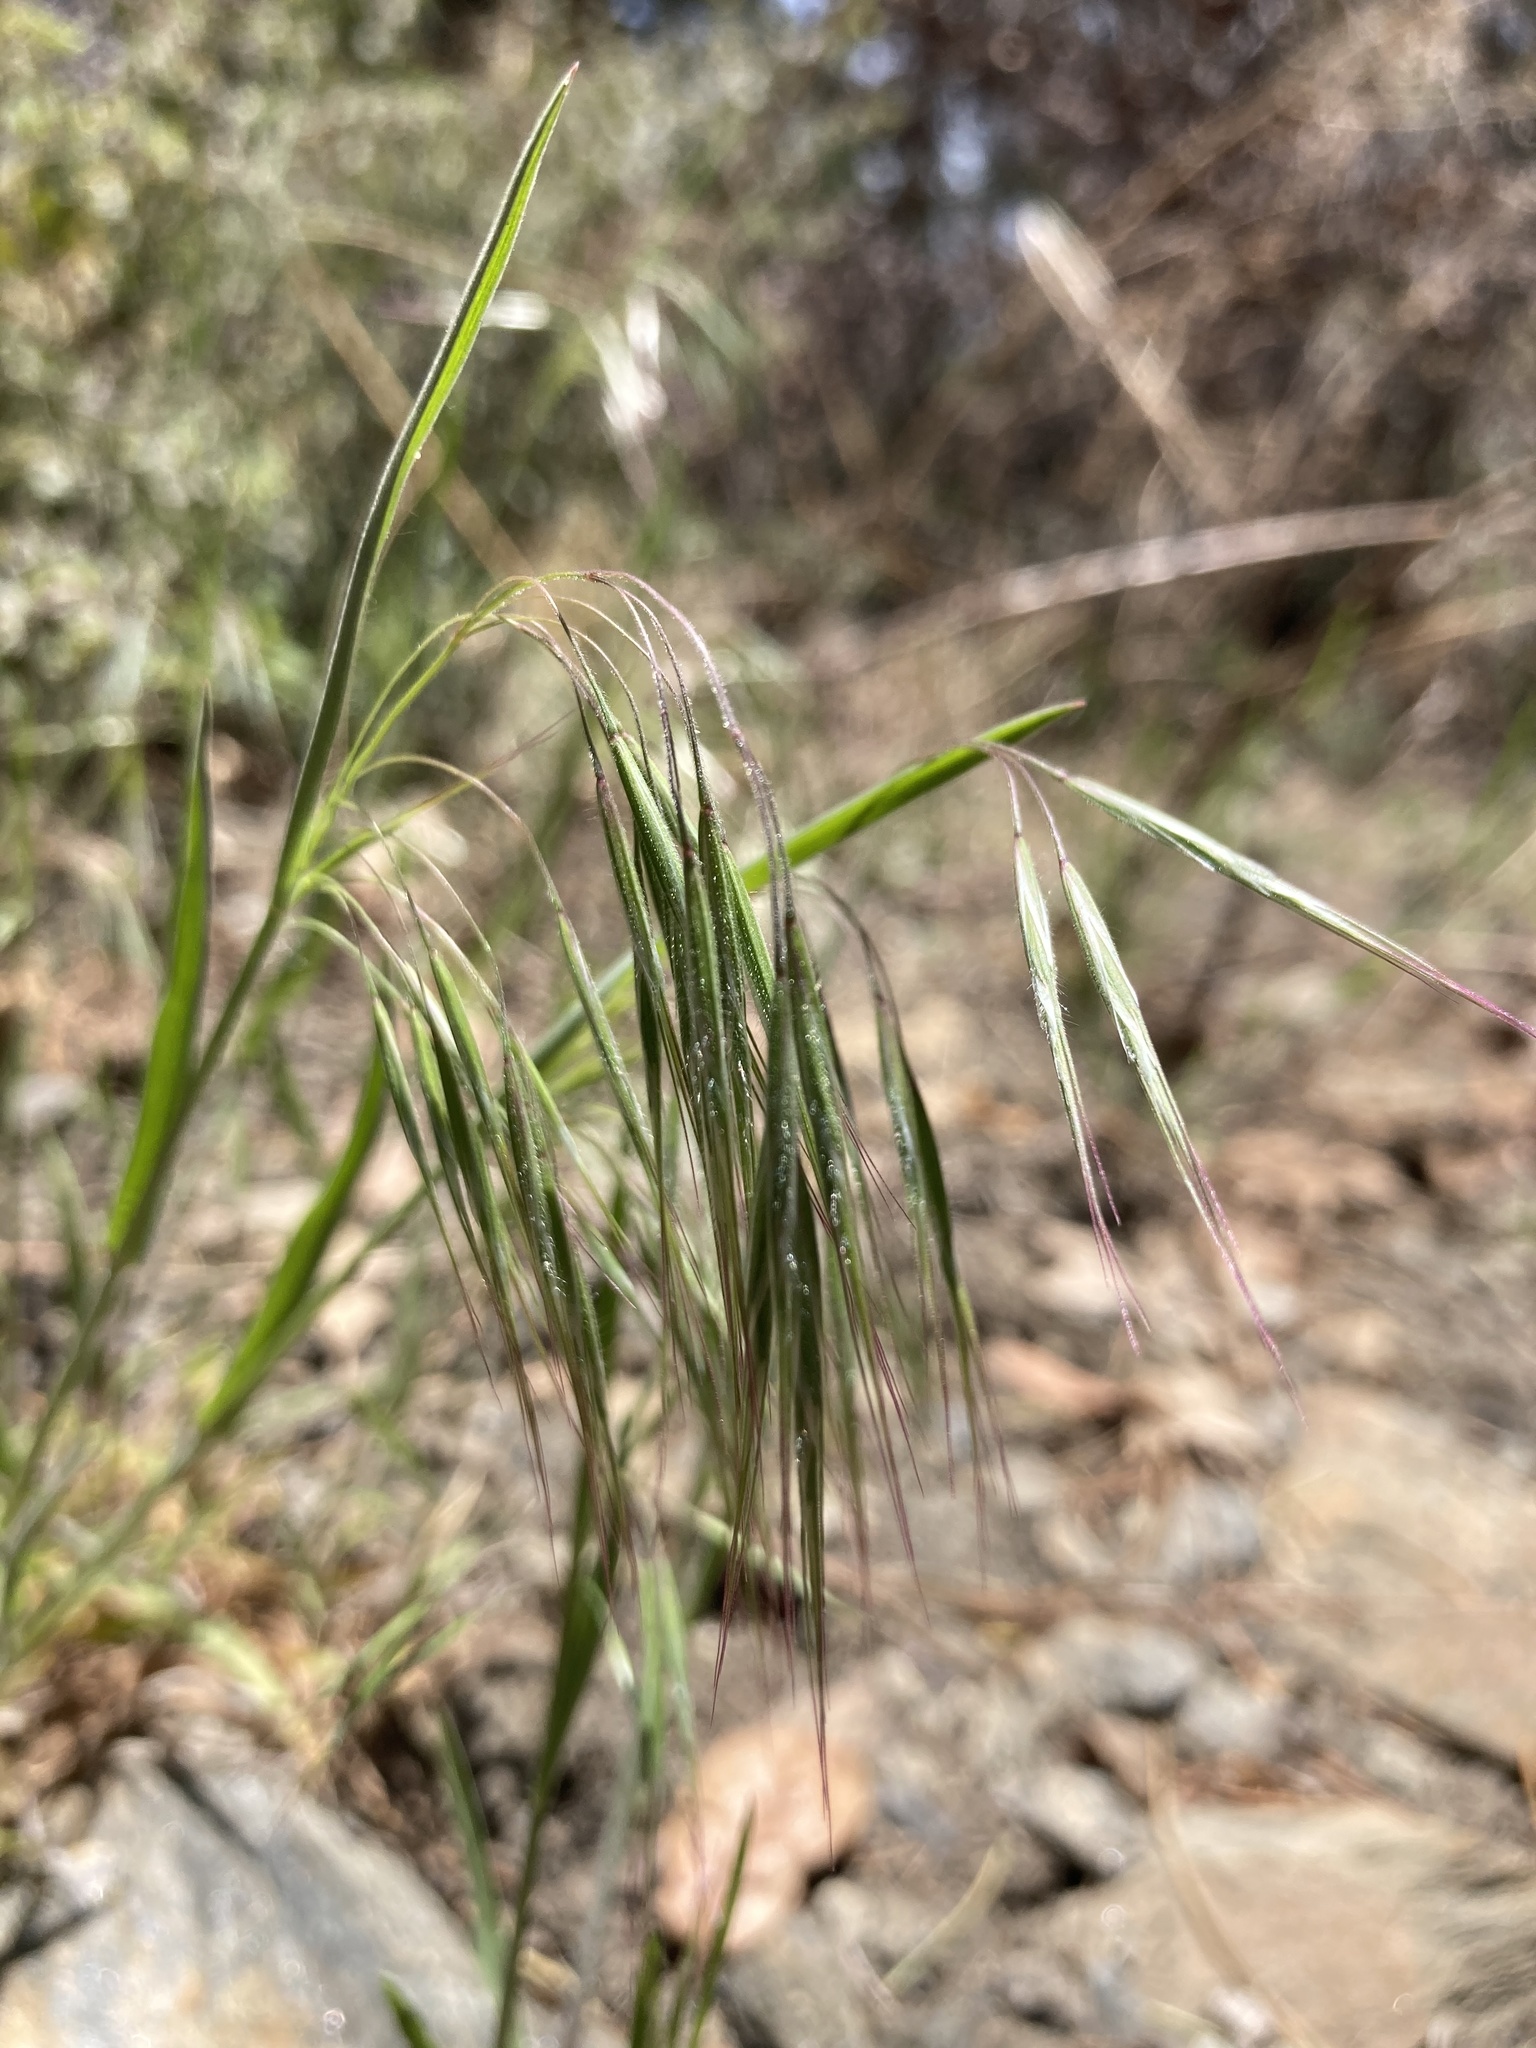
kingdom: Plantae
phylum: Tracheophyta
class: Liliopsida
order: Poales
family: Poaceae
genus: Bromus
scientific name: Bromus tectorum
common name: Cheatgrass
